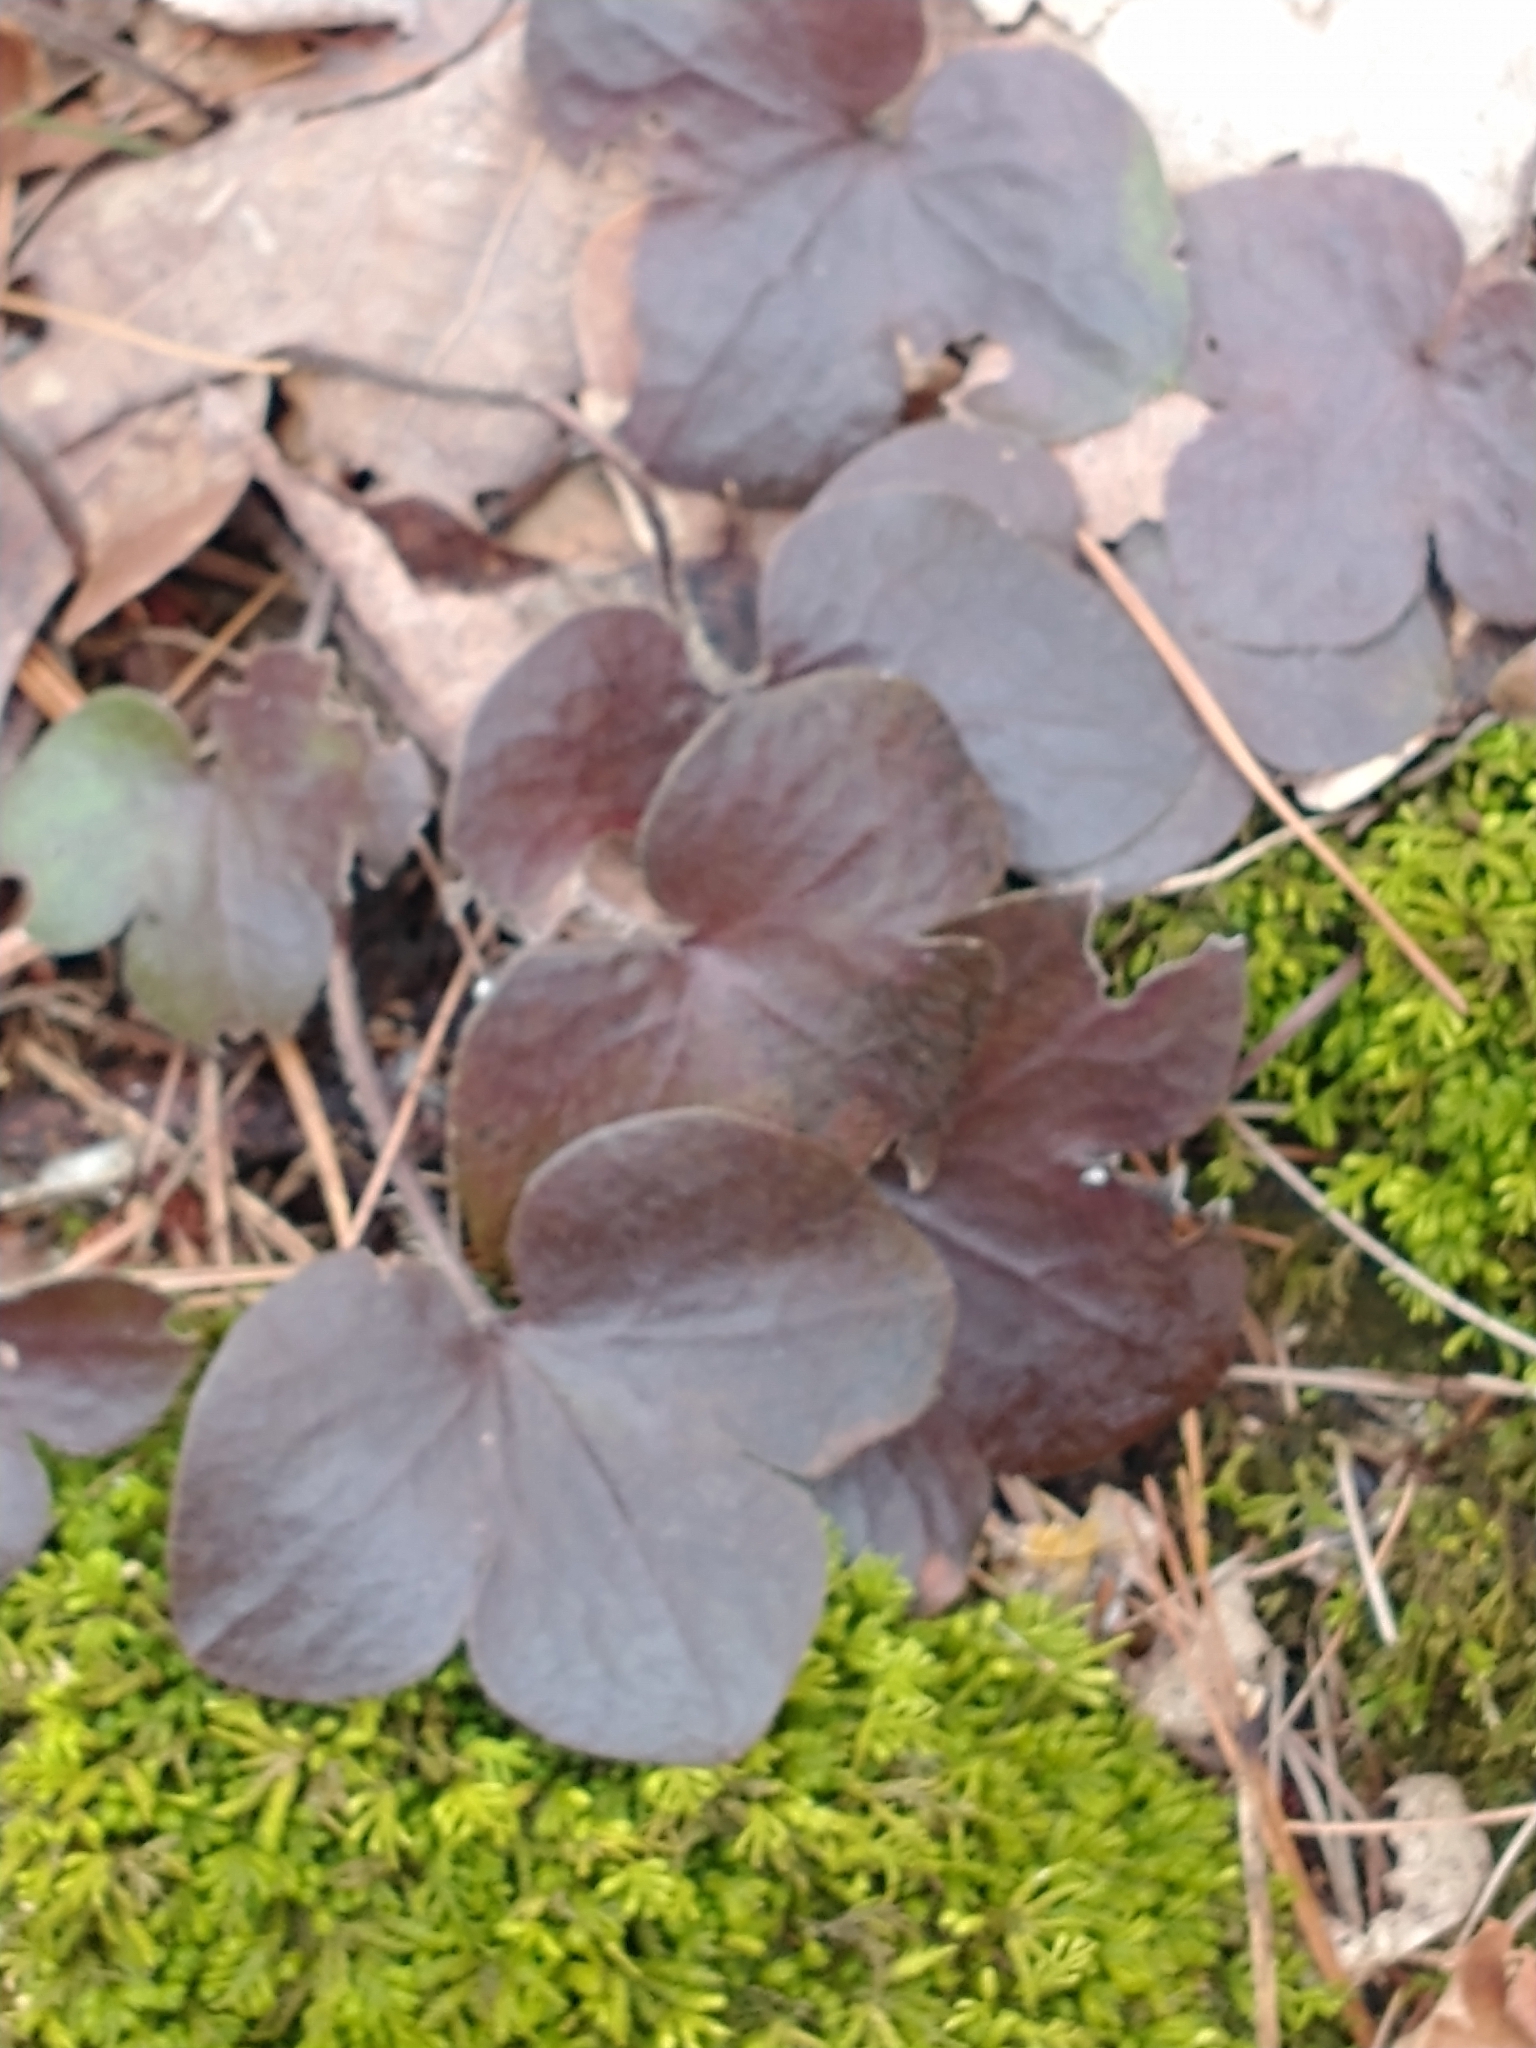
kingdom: Plantae
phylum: Tracheophyta
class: Magnoliopsida
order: Ranunculales
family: Ranunculaceae
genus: Hepatica
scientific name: Hepatica americana
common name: American hepatica
